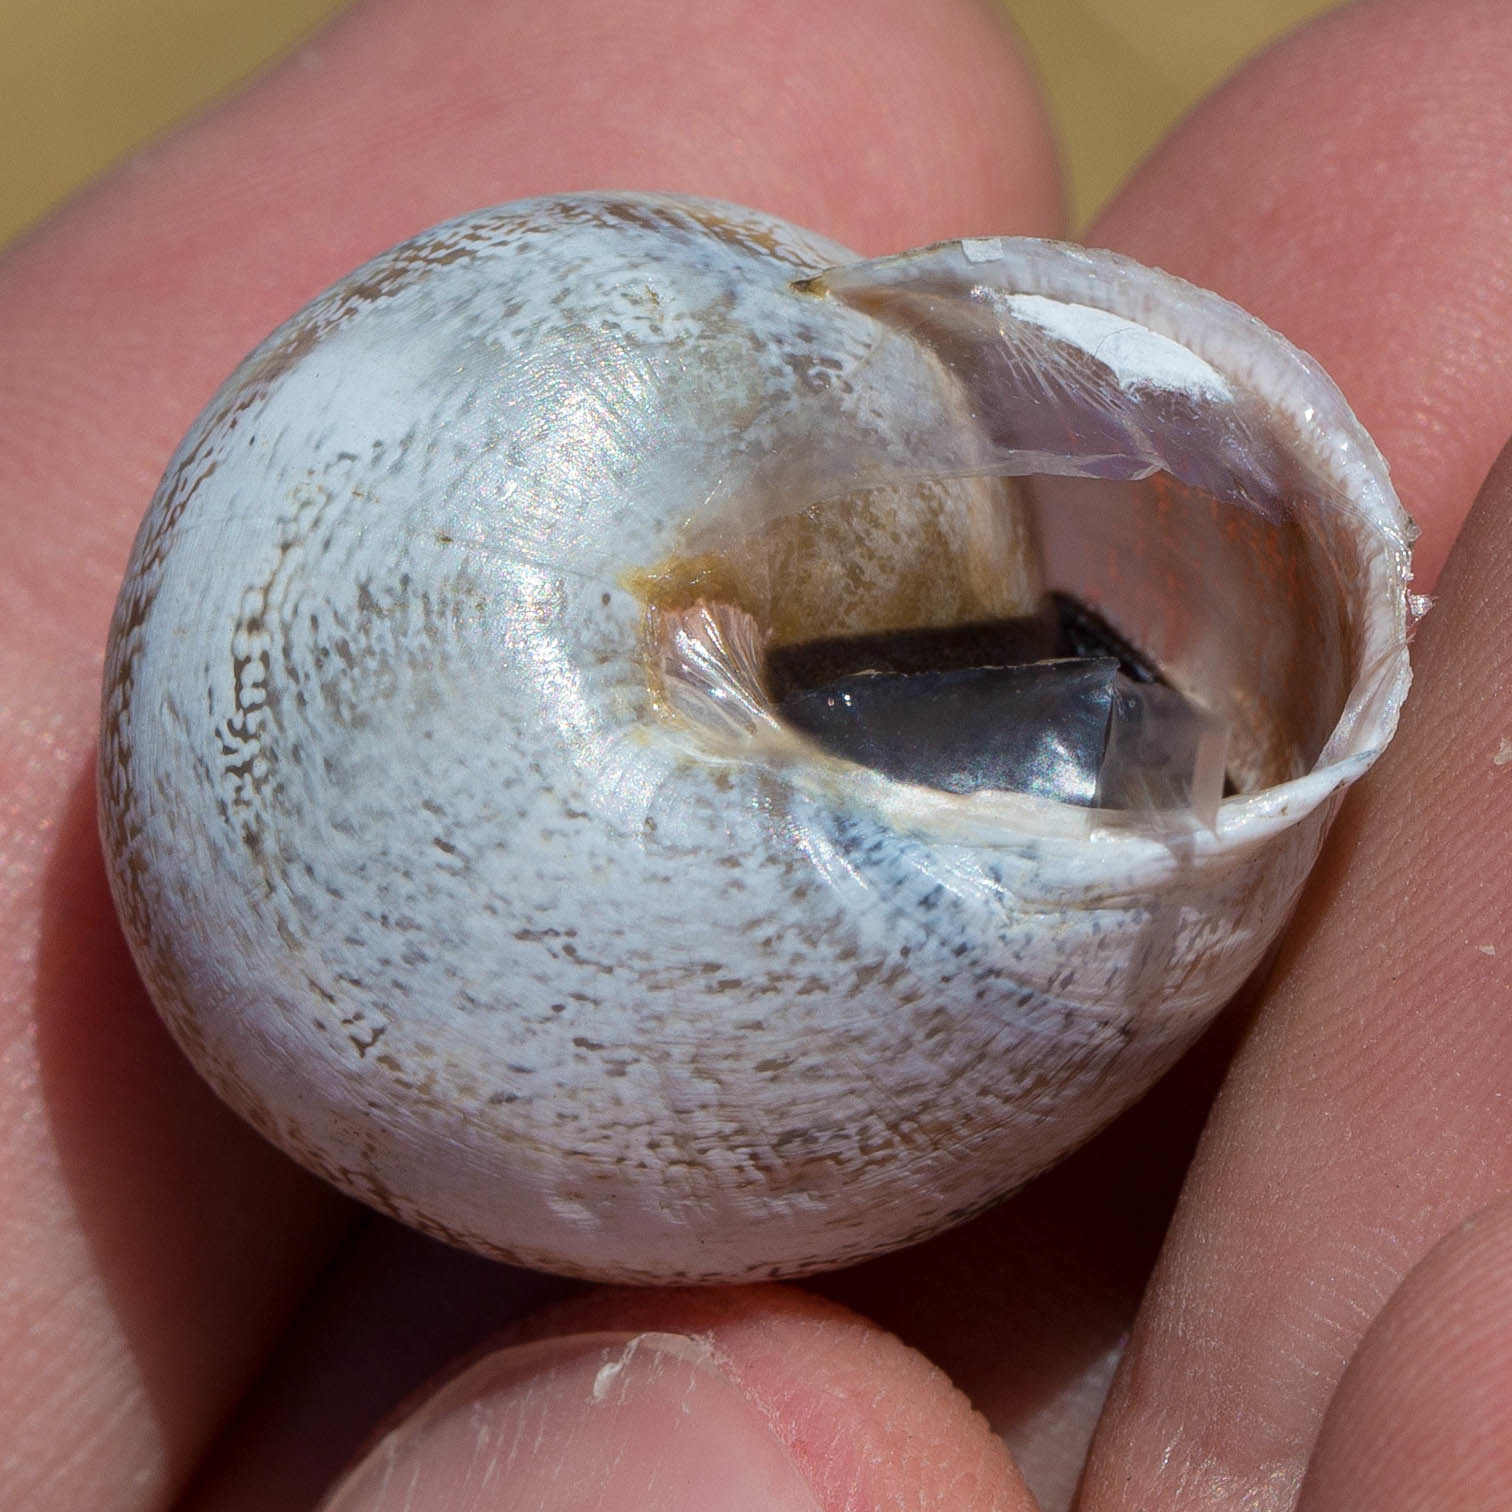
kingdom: Animalia
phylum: Mollusca
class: Gastropoda
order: Stylommatophora
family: Helicidae
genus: Otala
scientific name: Otala lactea
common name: Milk snail
